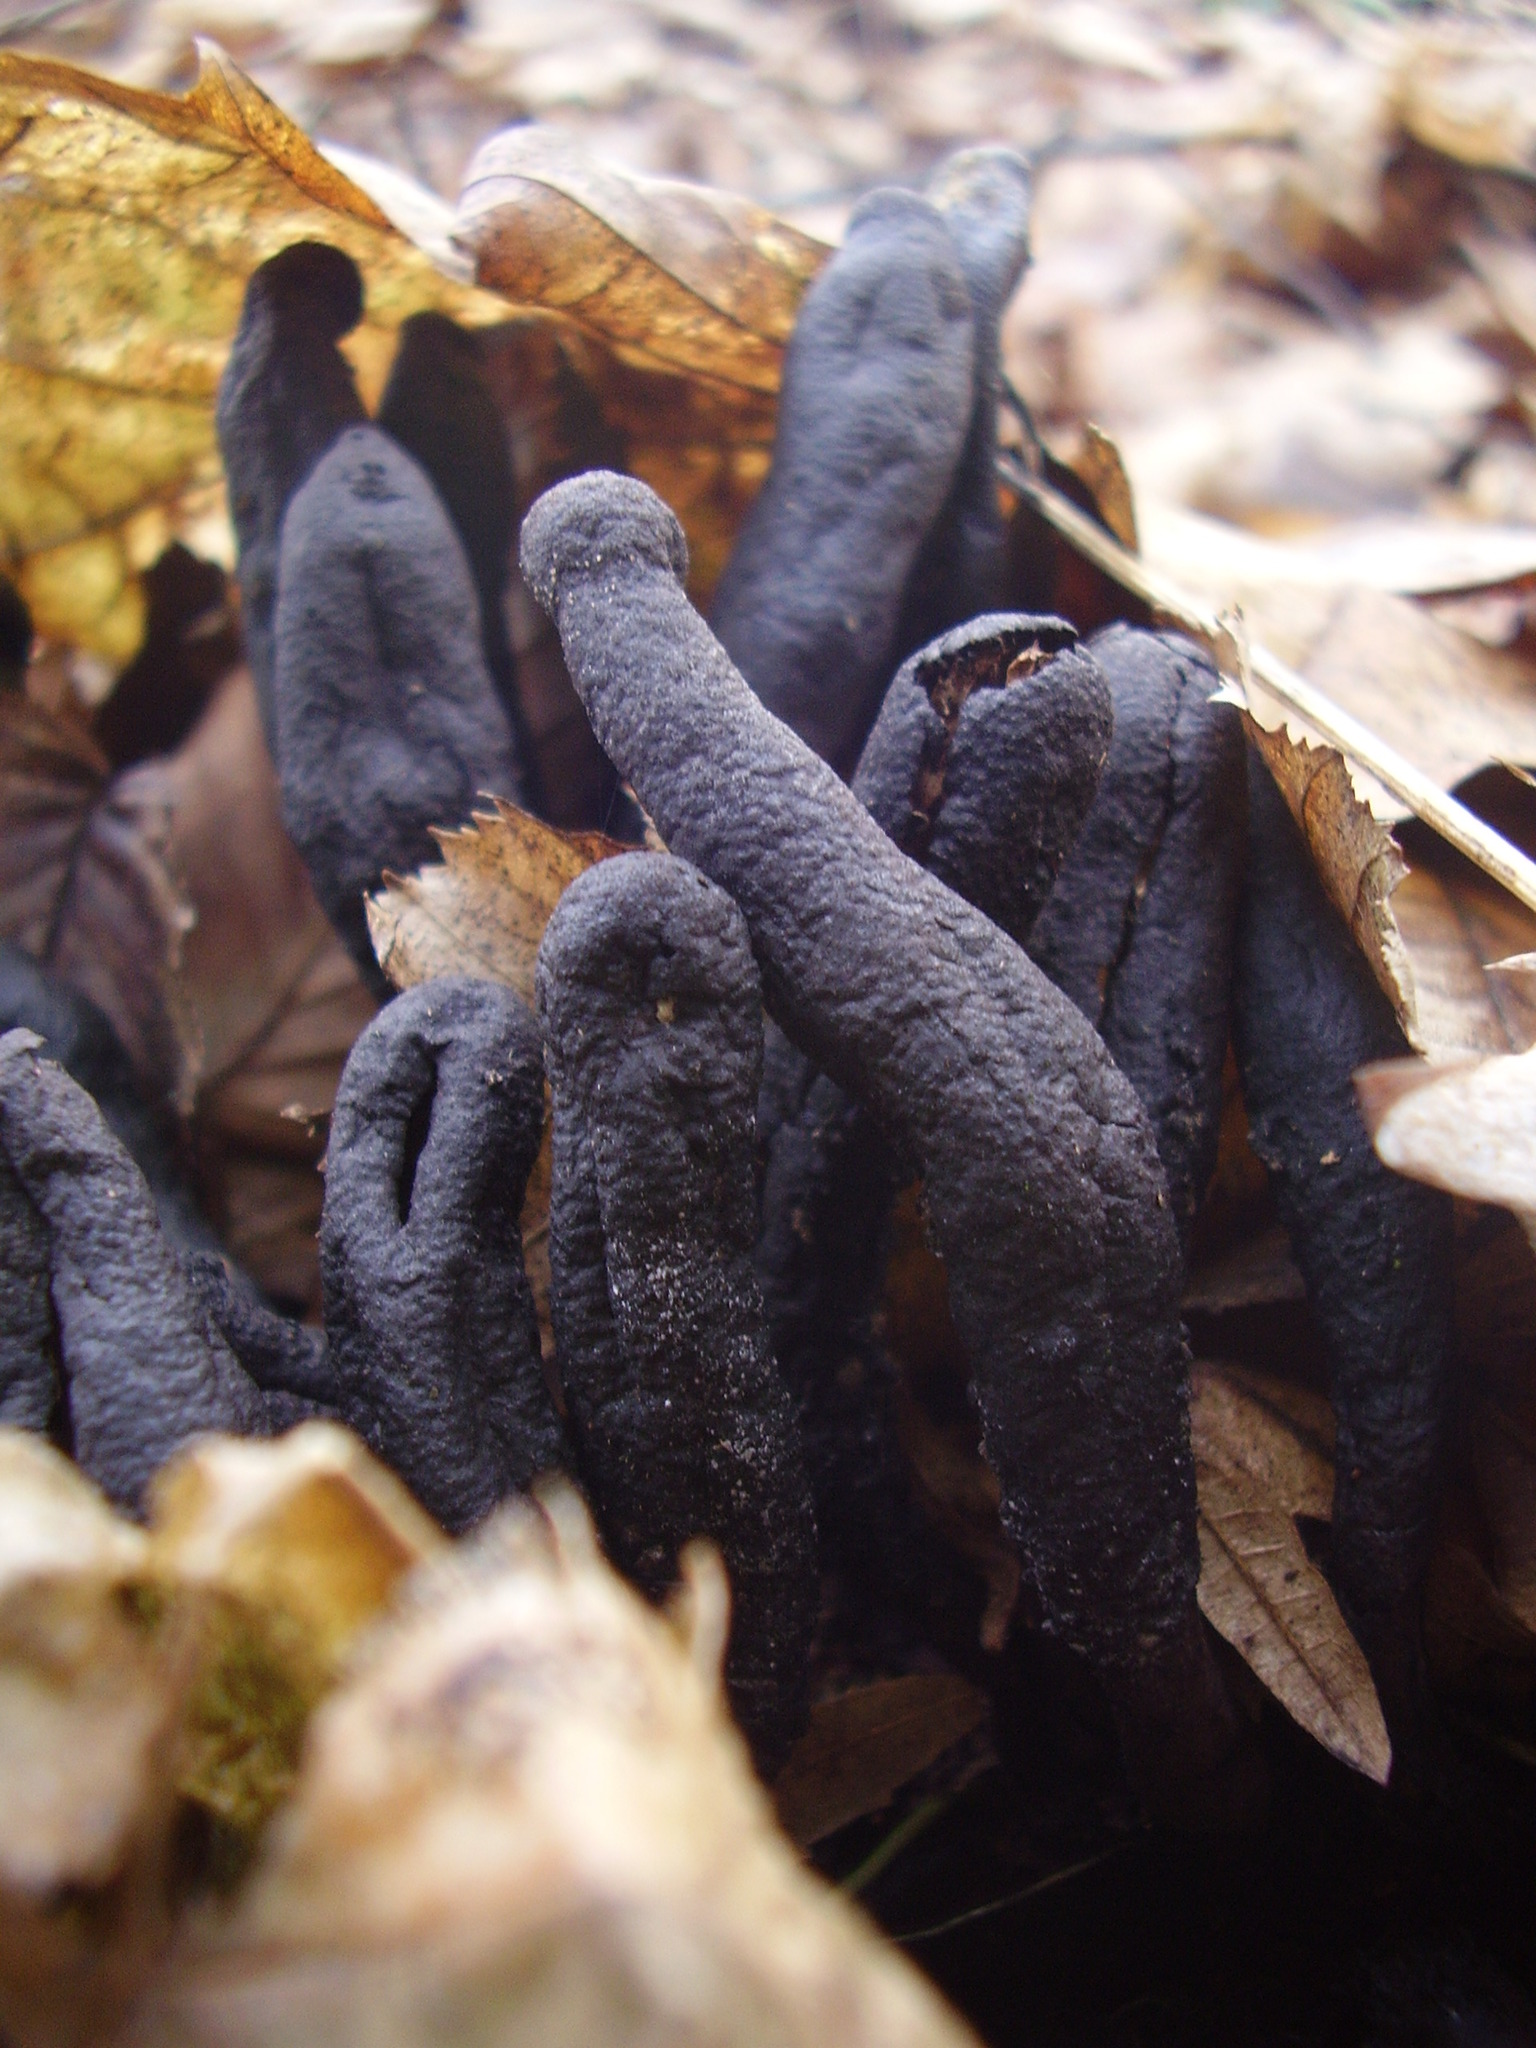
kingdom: Fungi
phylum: Ascomycota
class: Sordariomycetes
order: Xylariales
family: Xylariaceae
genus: Xylaria
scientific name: Xylaria polymorpha
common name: Dead man's fingers
